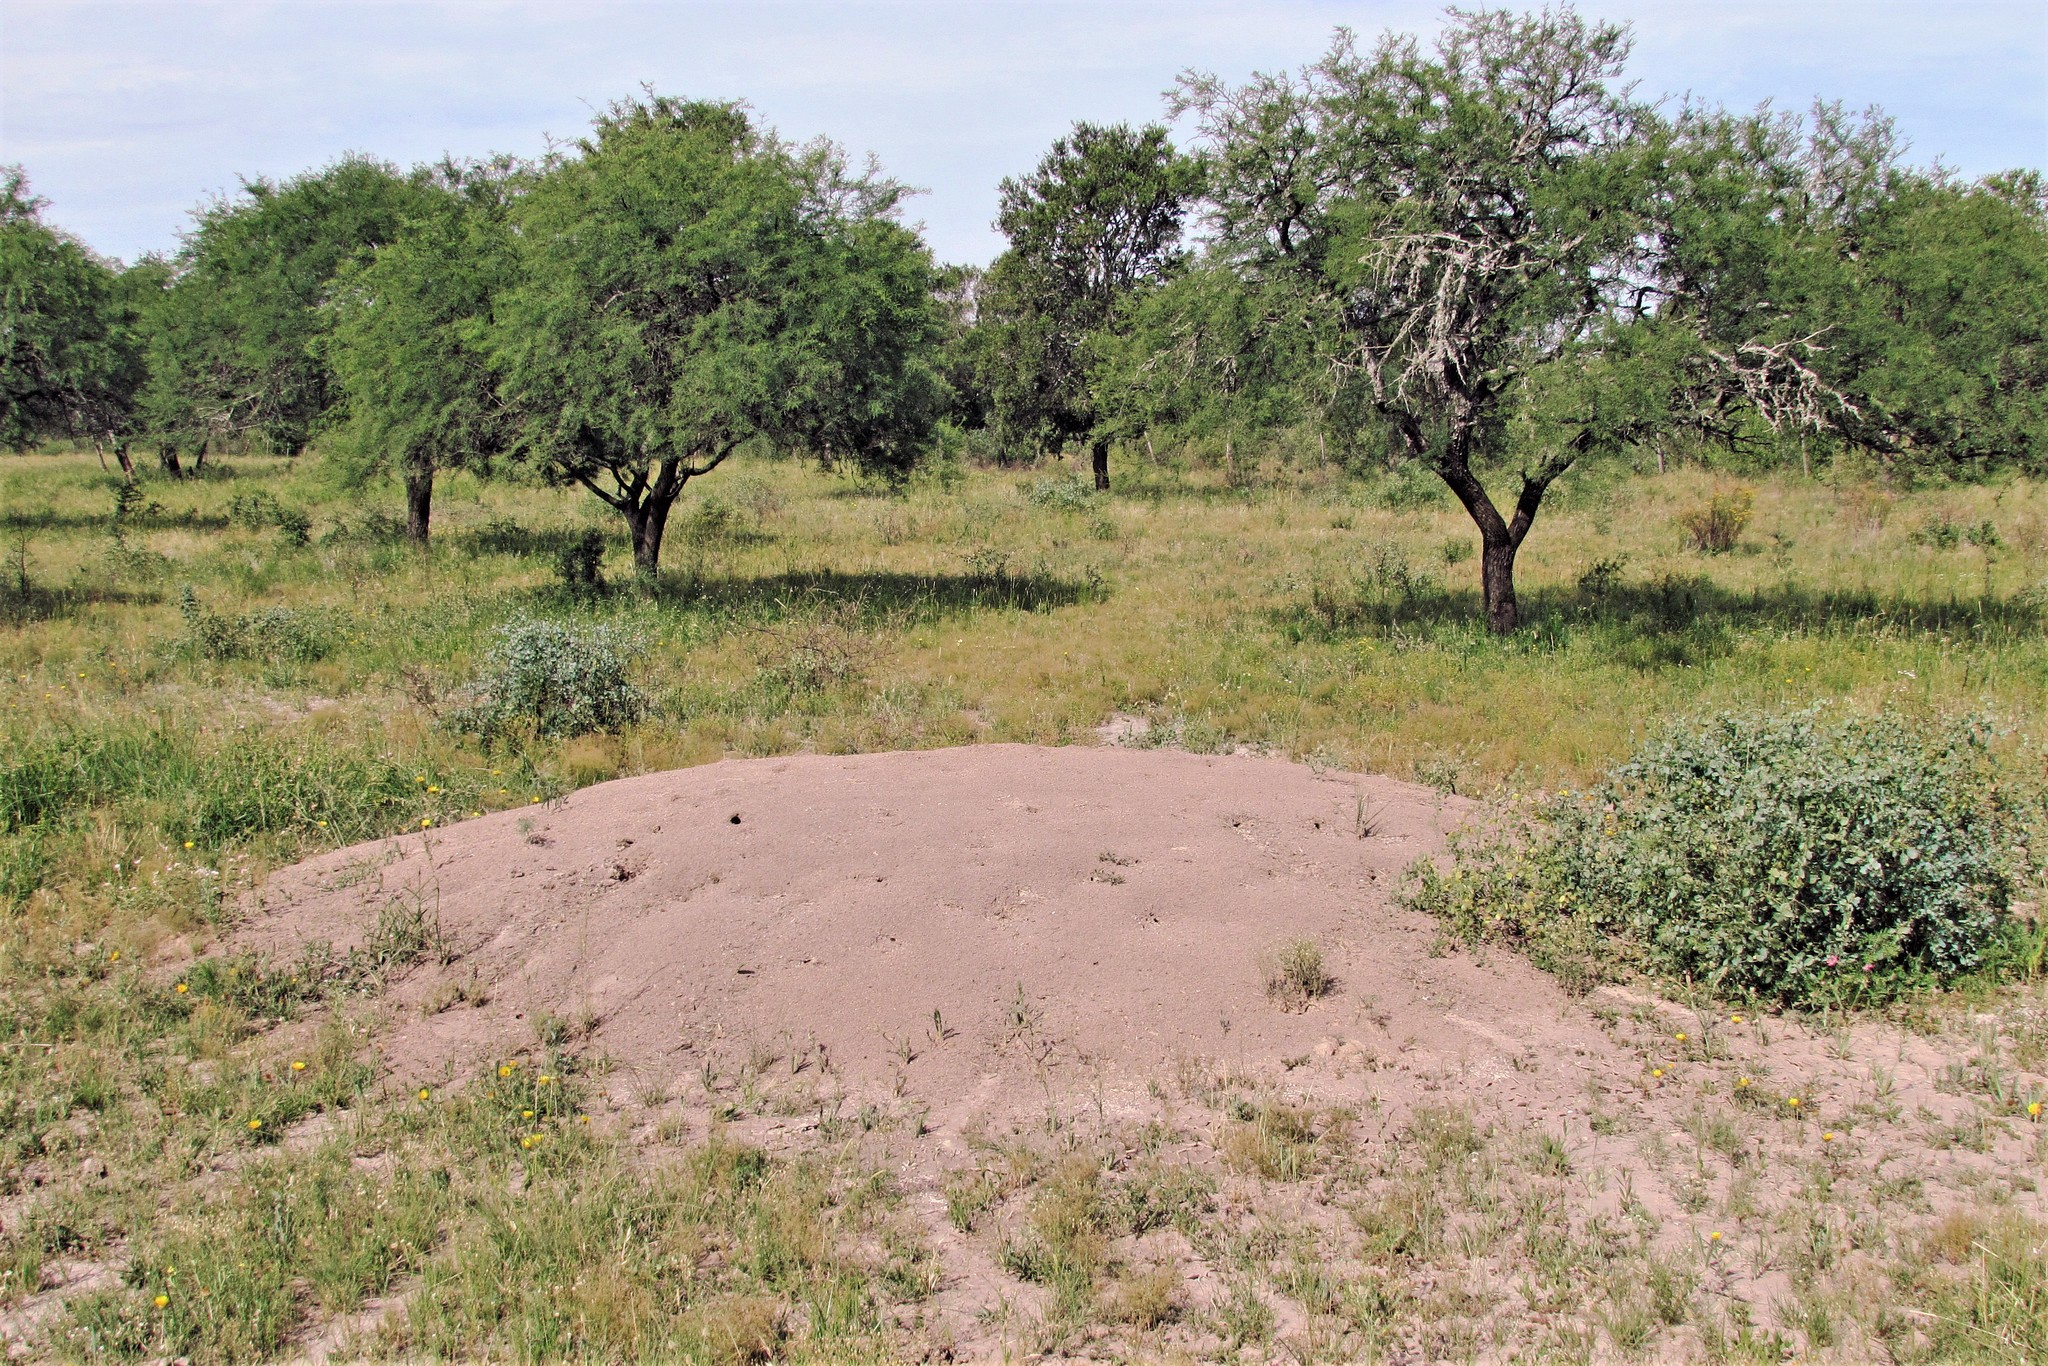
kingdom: Animalia
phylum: Arthropoda
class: Insecta
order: Hymenoptera
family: Formicidae
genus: Atta
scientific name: Atta vollenweideri
